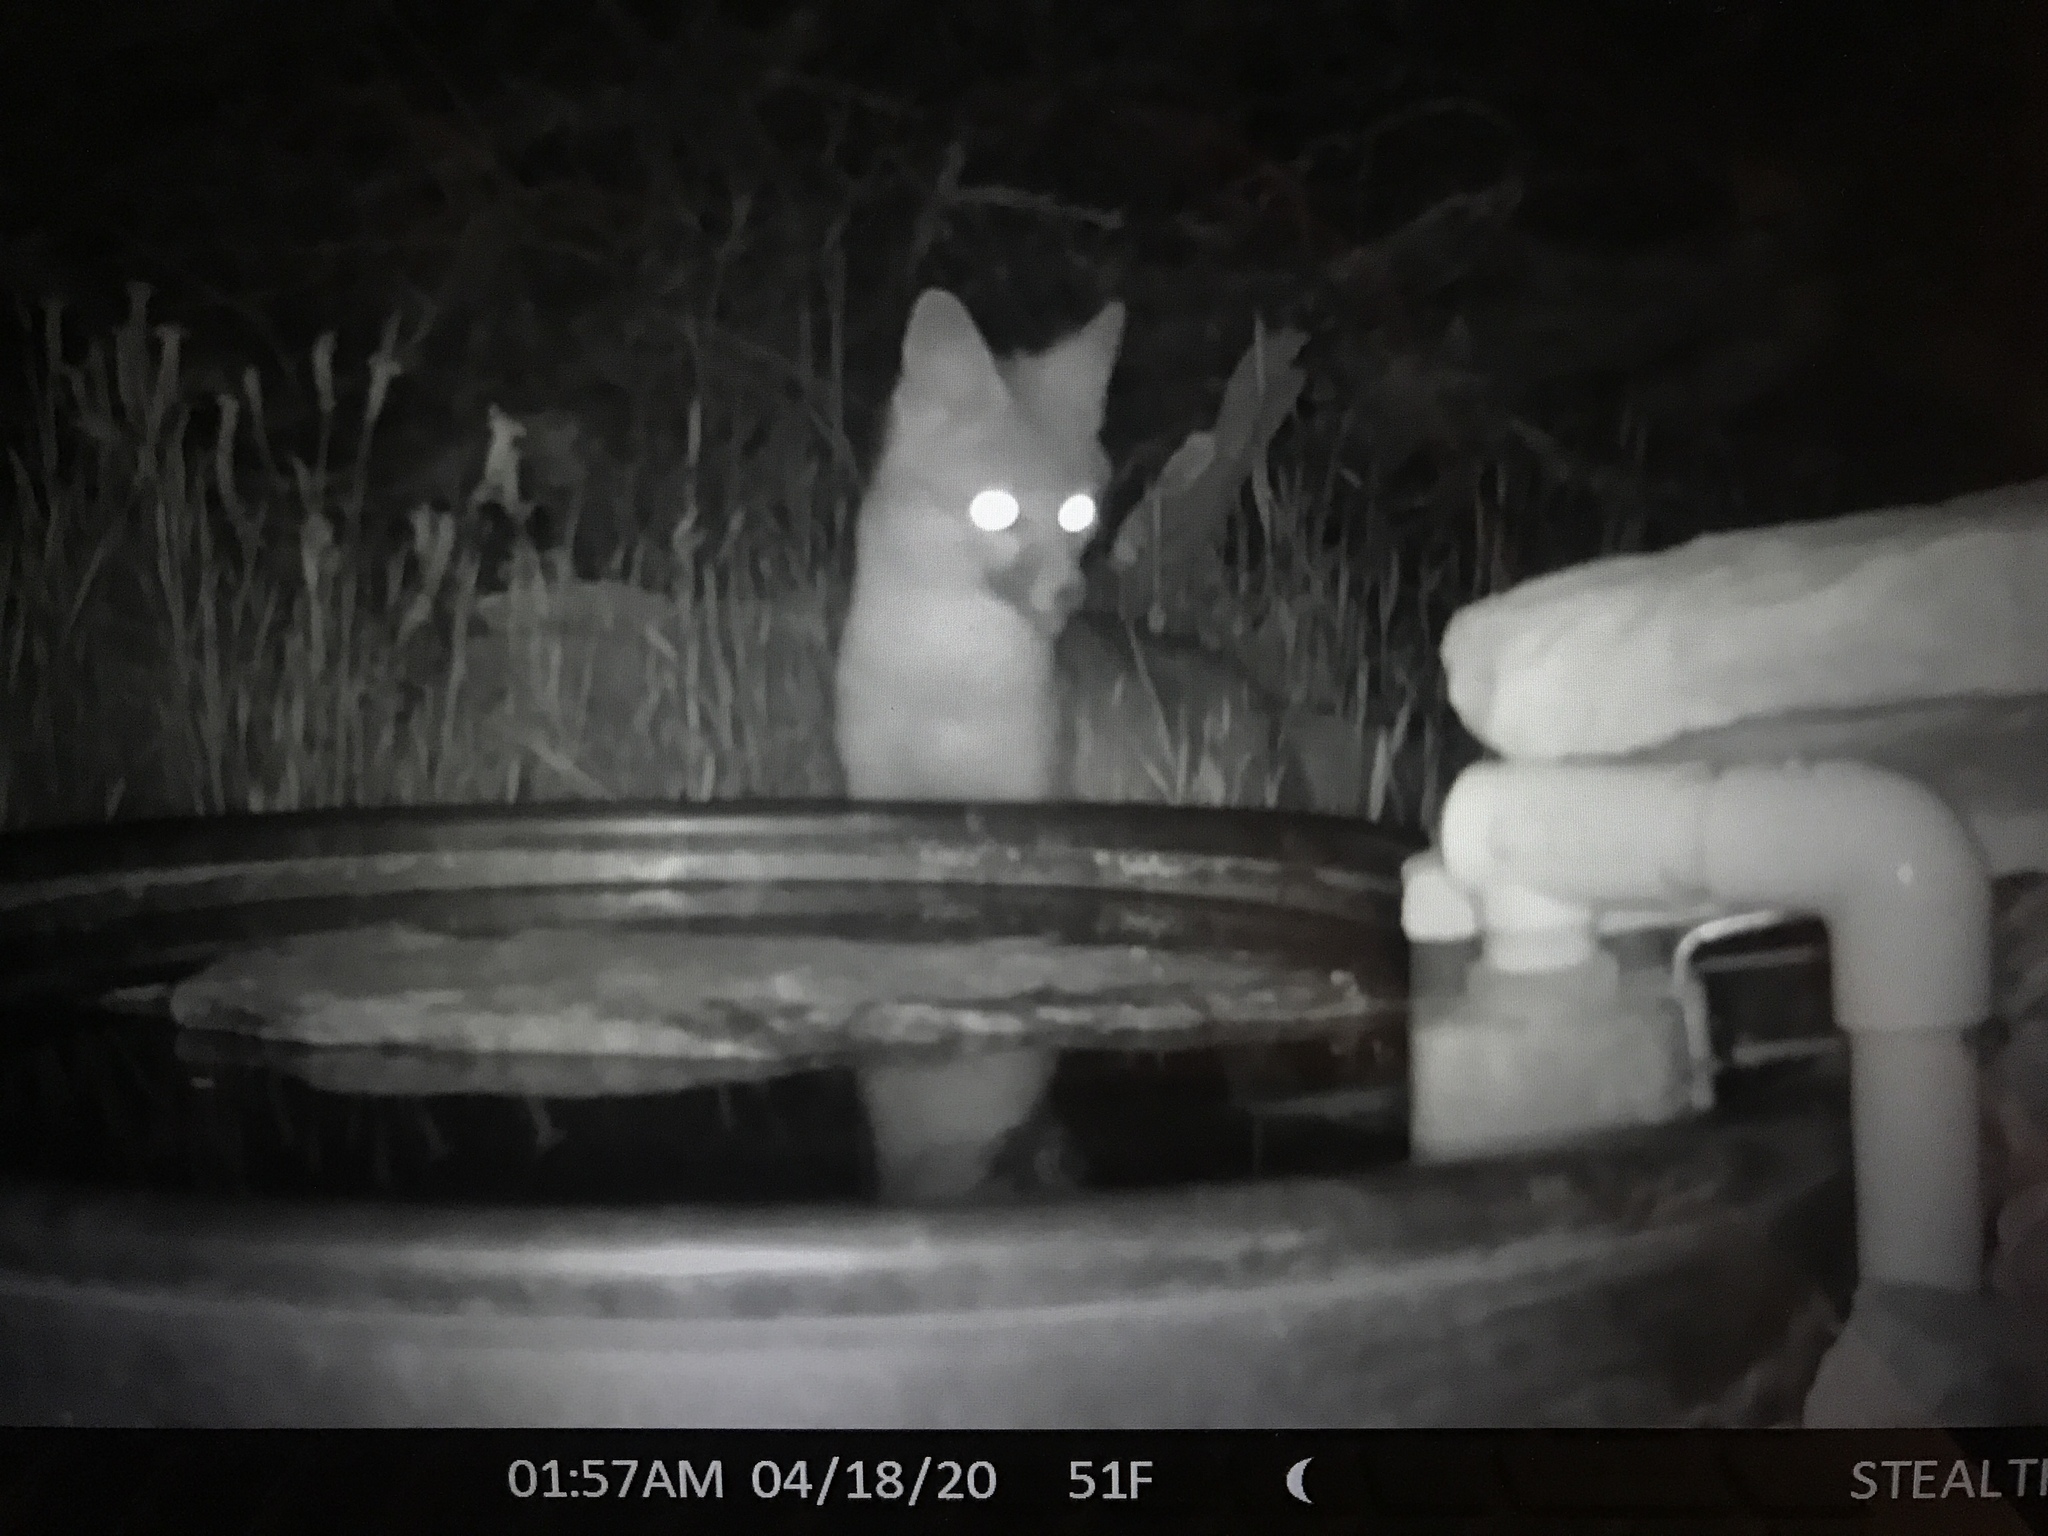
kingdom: Animalia
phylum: Chordata
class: Mammalia
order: Carnivora
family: Canidae
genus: Urocyon
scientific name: Urocyon cinereoargenteus
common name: Gray fox
